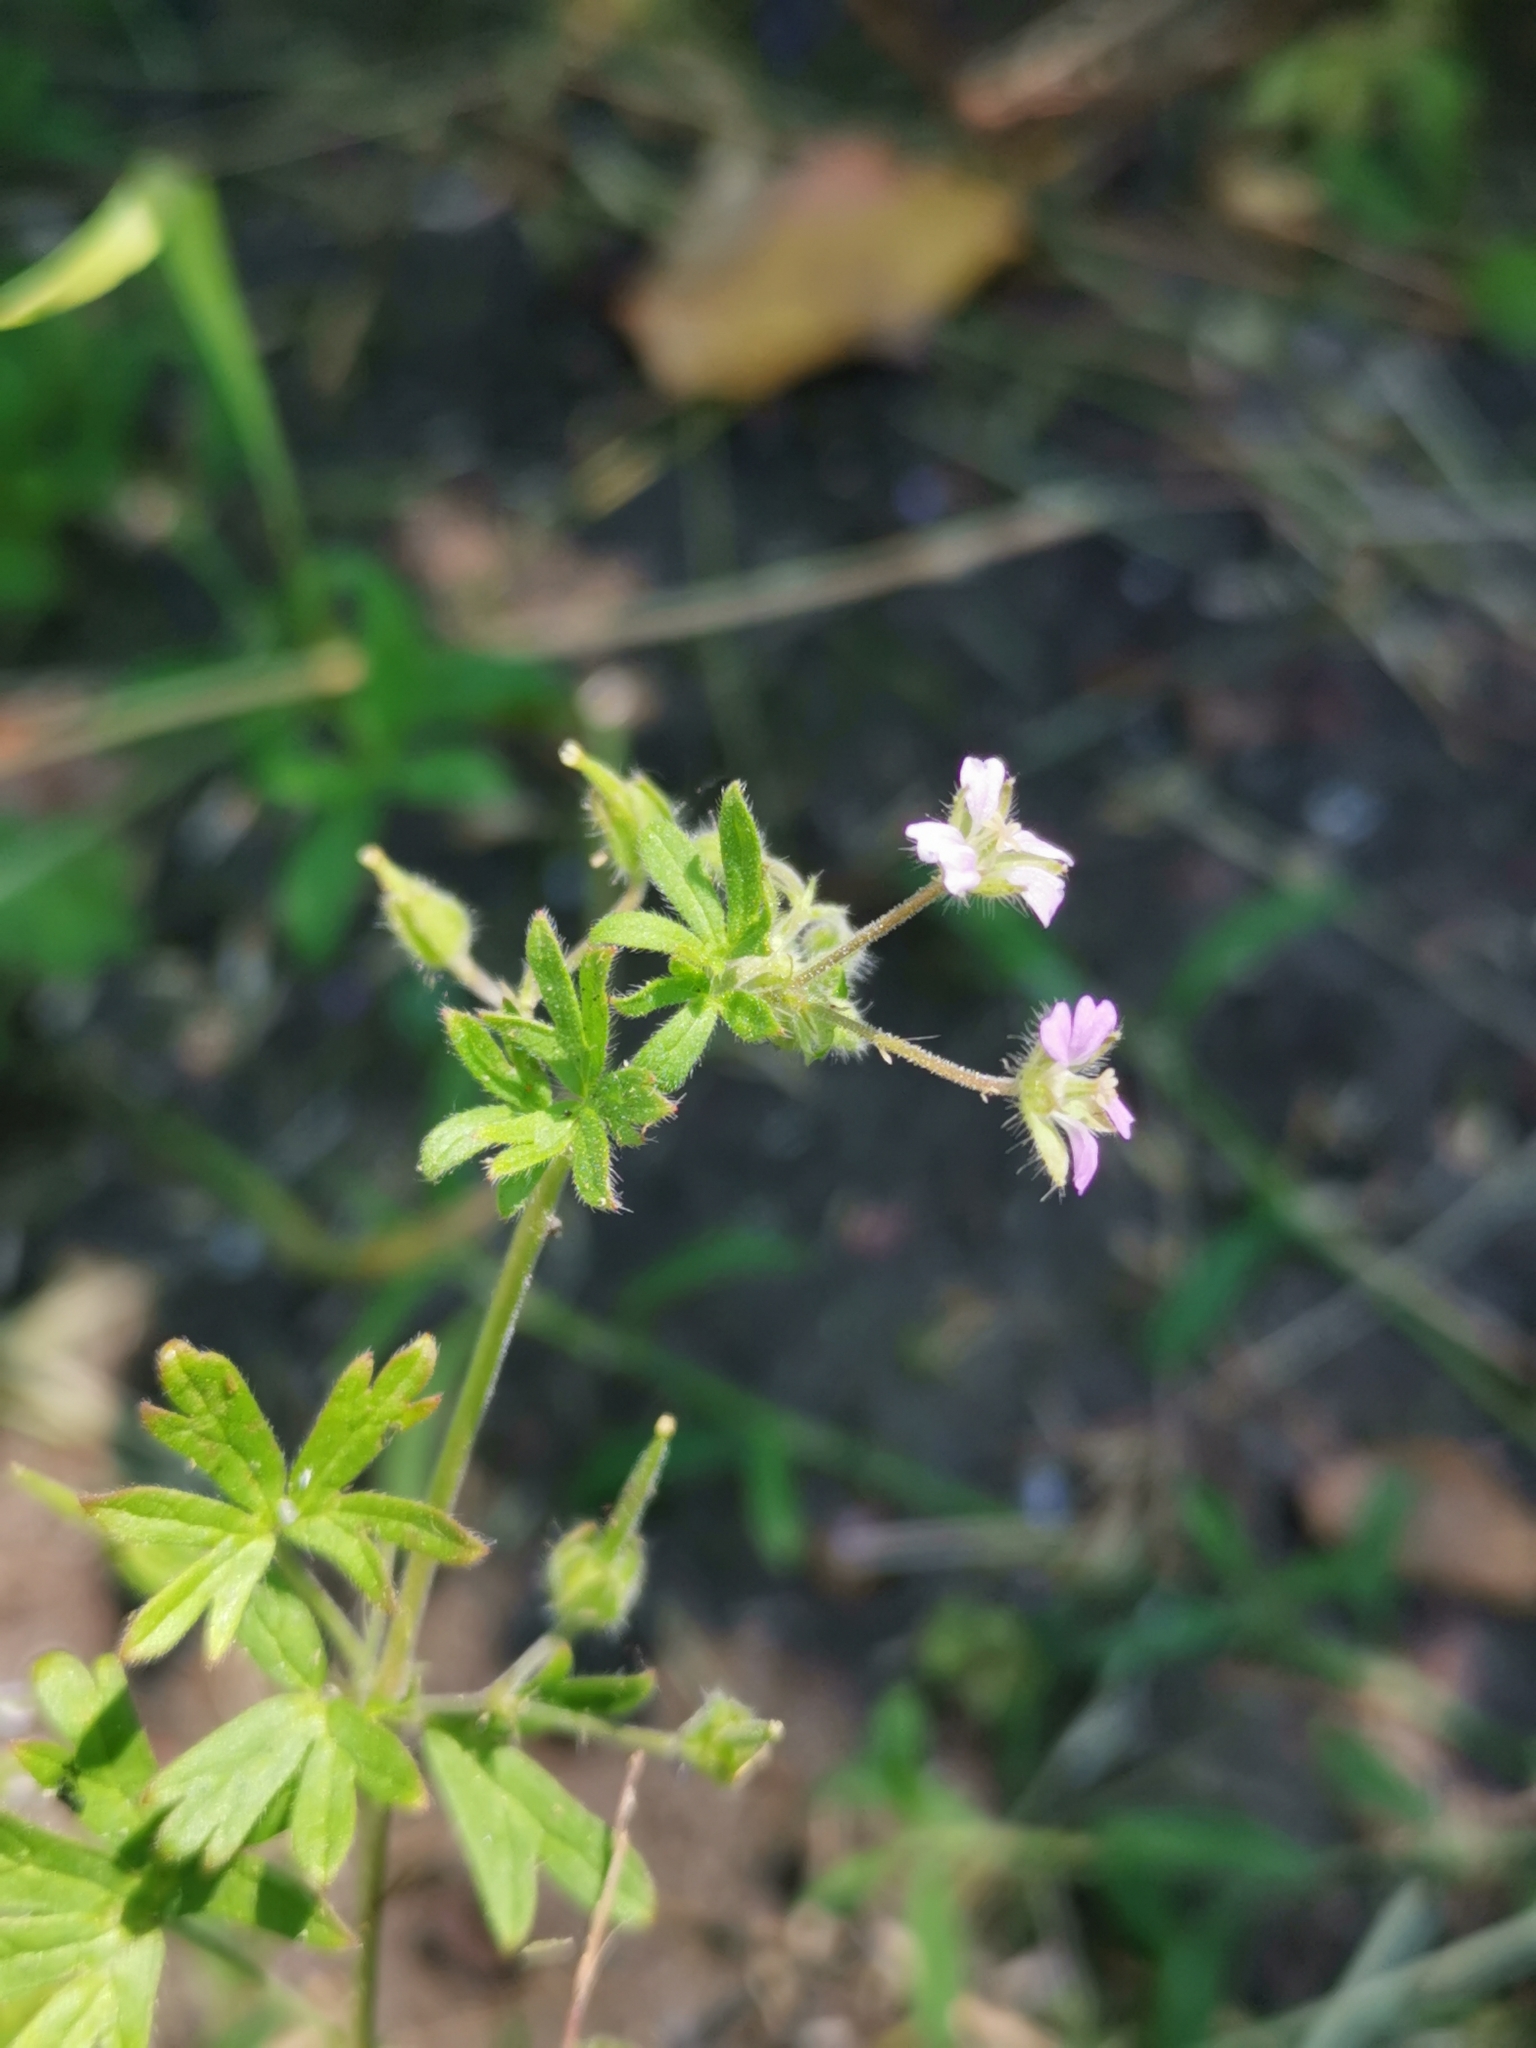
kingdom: Plantae
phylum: Tracheophyta
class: Magnoliopsida
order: Geraniales
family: Geraniaceae
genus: Geranium
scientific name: Geranium pusillum
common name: Small geranium
